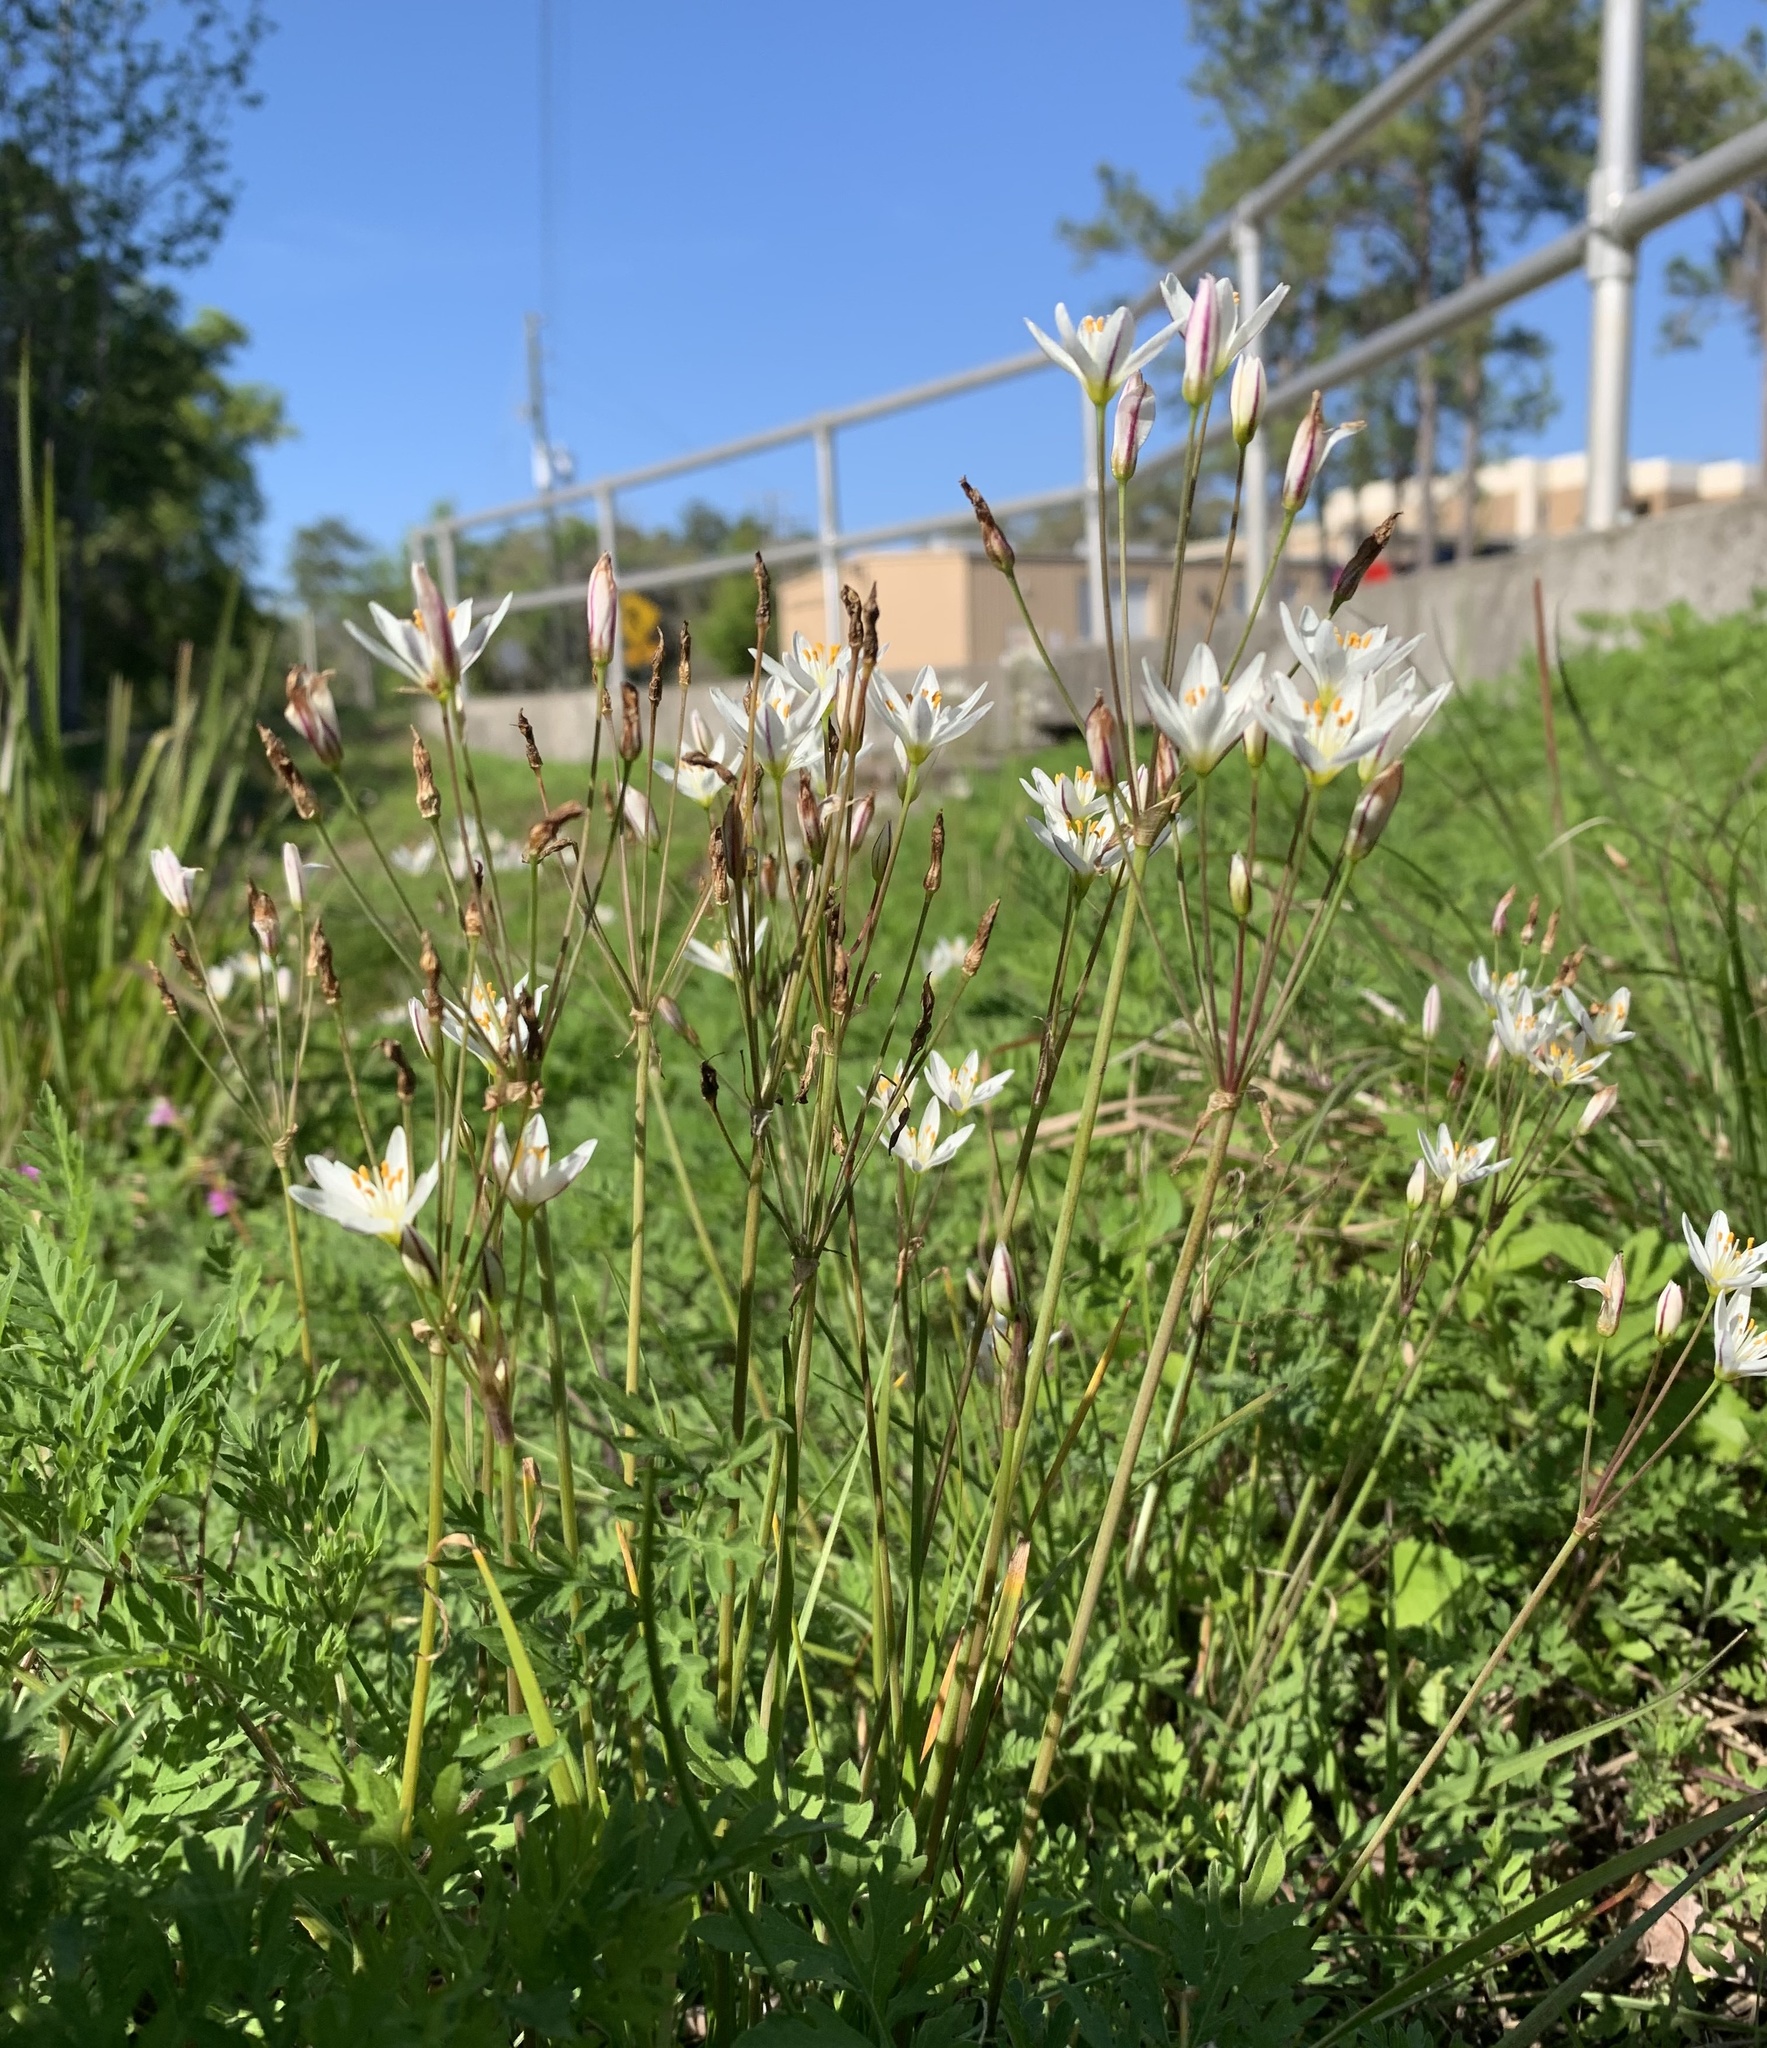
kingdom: Plantae
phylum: Tracheophyta
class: Liliopsida
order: Asparagales
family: Amaryllidaceae
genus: Nothoscordum
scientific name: Nothoscordum bivalve
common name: Crow-poison
